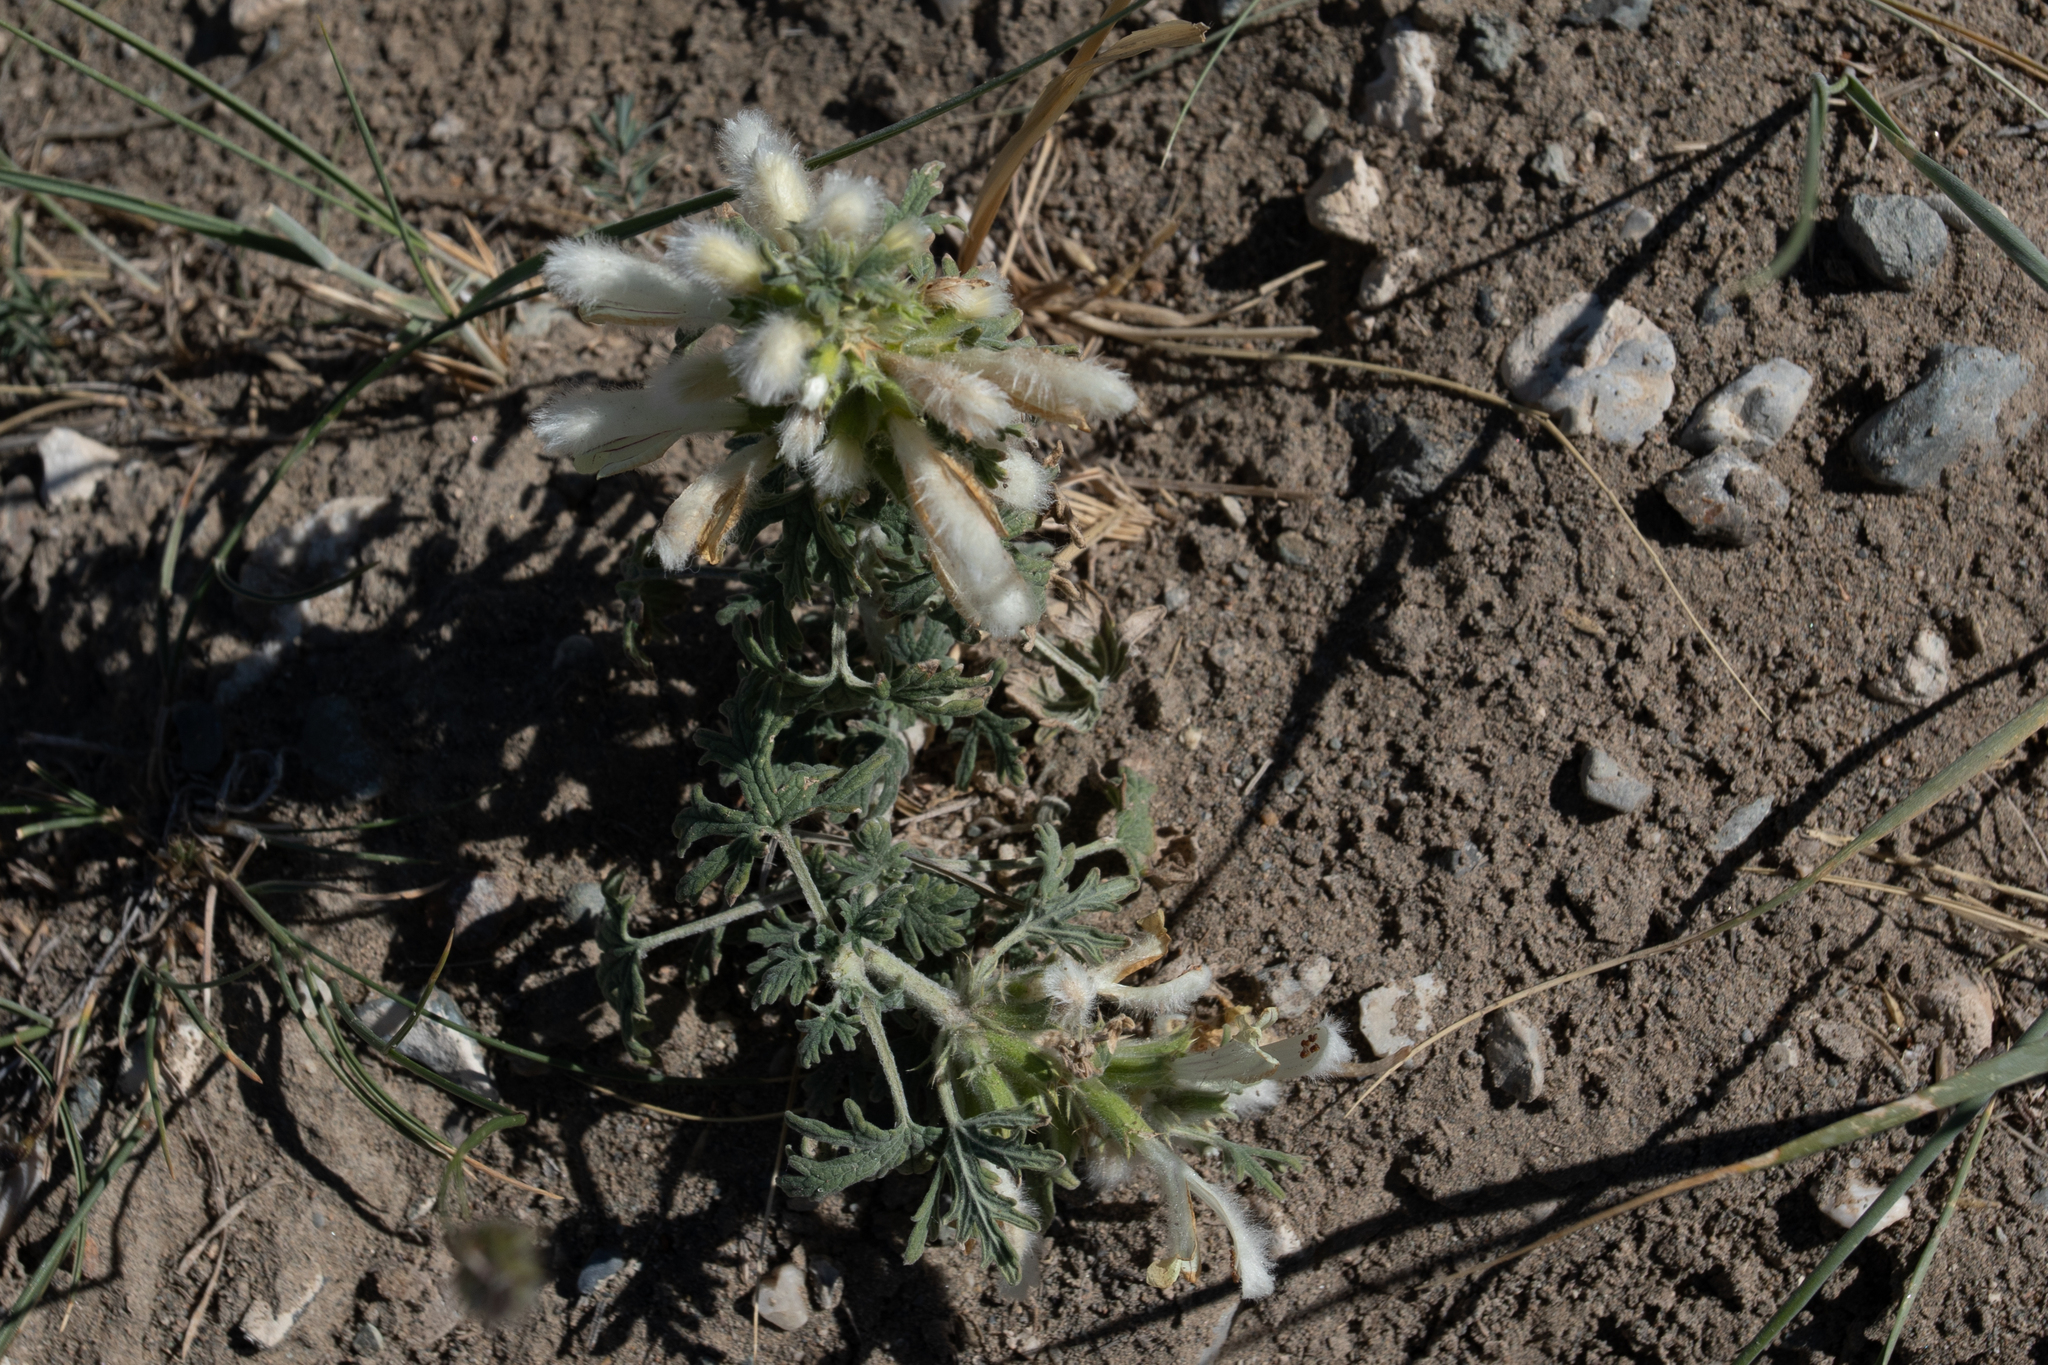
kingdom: Plantae
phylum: Tracheophyta
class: Magnoliopsida
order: Lamiales
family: Lamiaceae
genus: Panzerina
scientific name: Panzerina lanata
